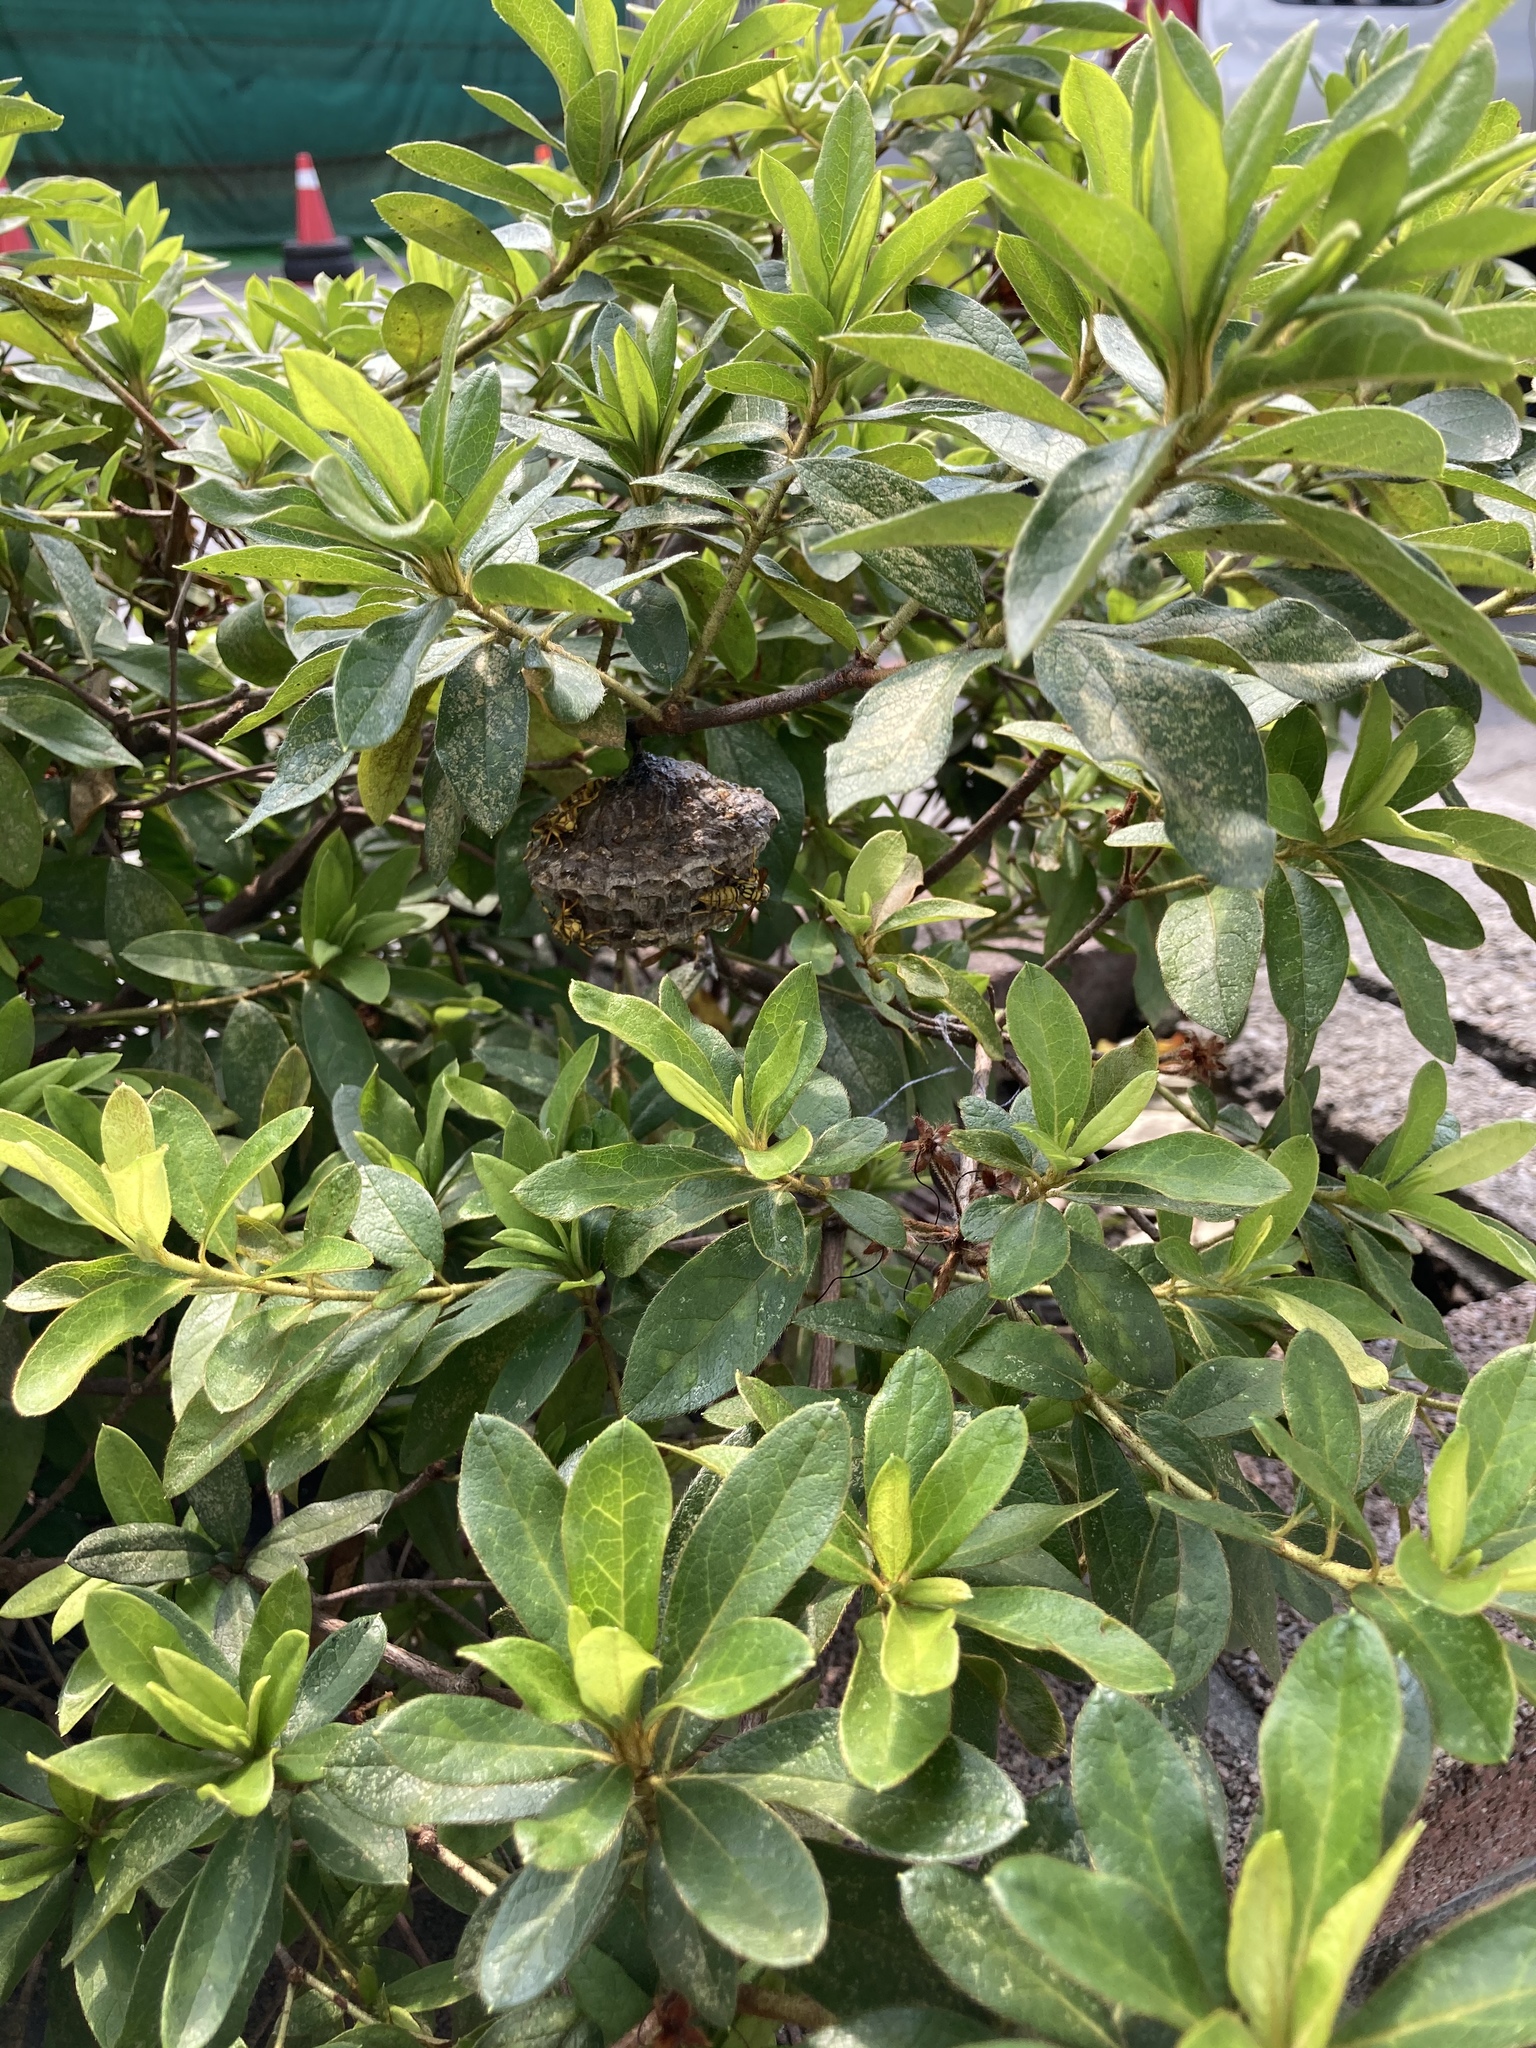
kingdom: Animalia
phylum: Arthropoda
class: Insecta
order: Hymenoptera
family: Eumenidae
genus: Polistes
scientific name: Polistes rothneyi
